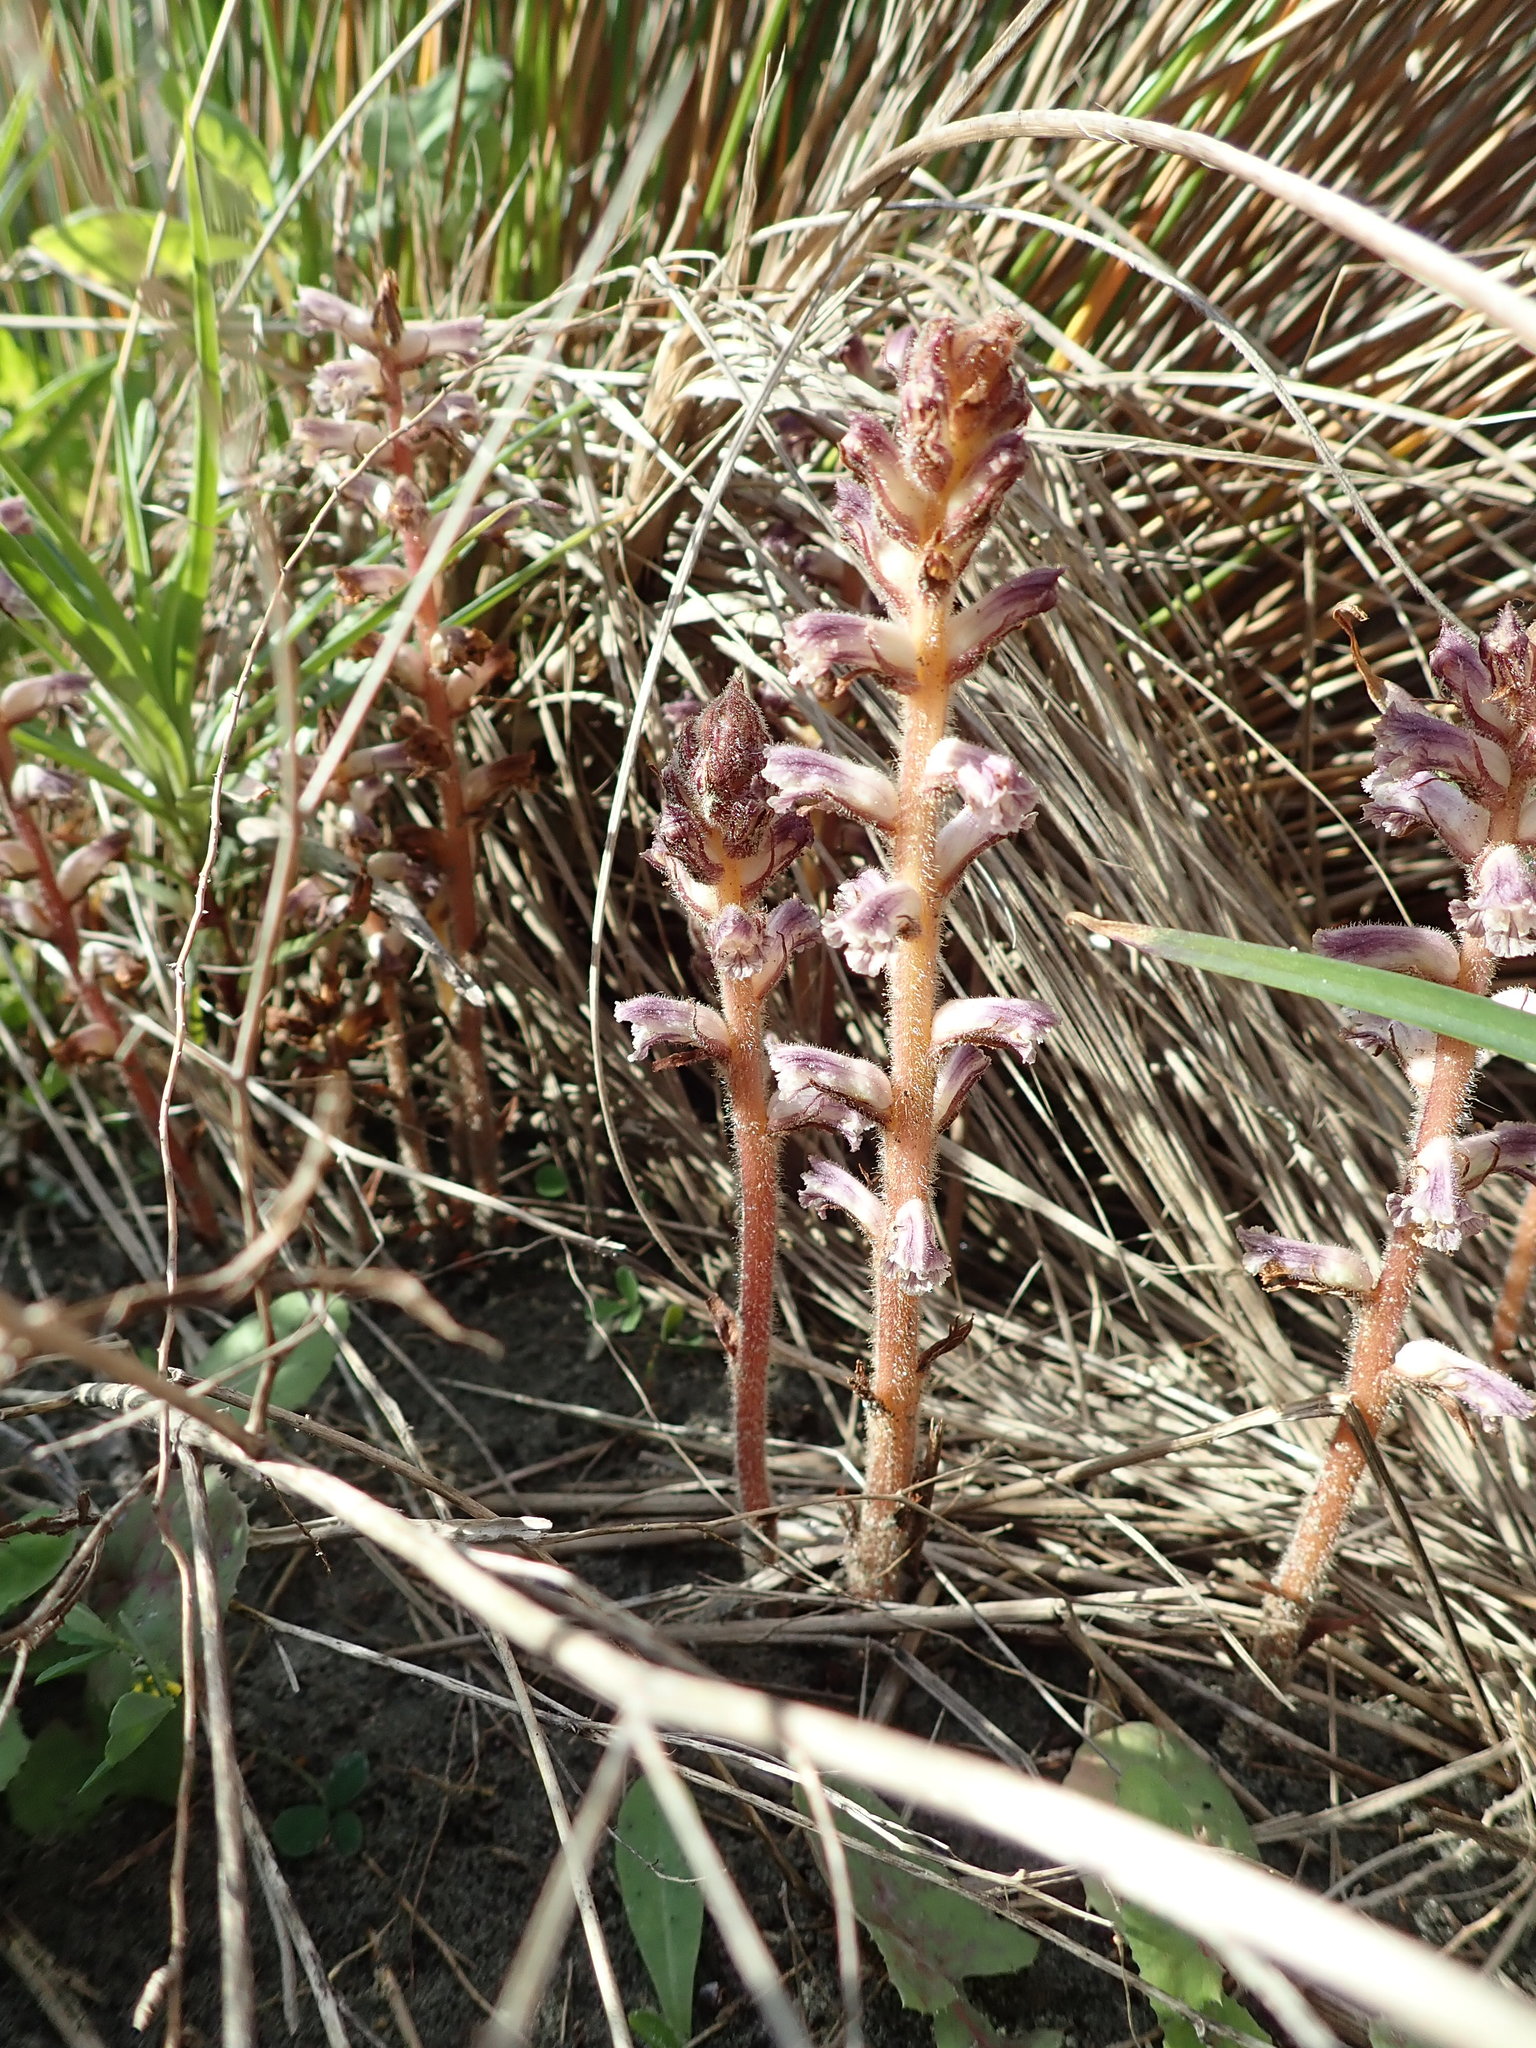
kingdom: Plantae
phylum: Tracheophyta
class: Magnoliopsida
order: Lamiales
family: Orobanchaceae
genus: Orobanche
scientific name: Orobanche minor
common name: Common broomrape
